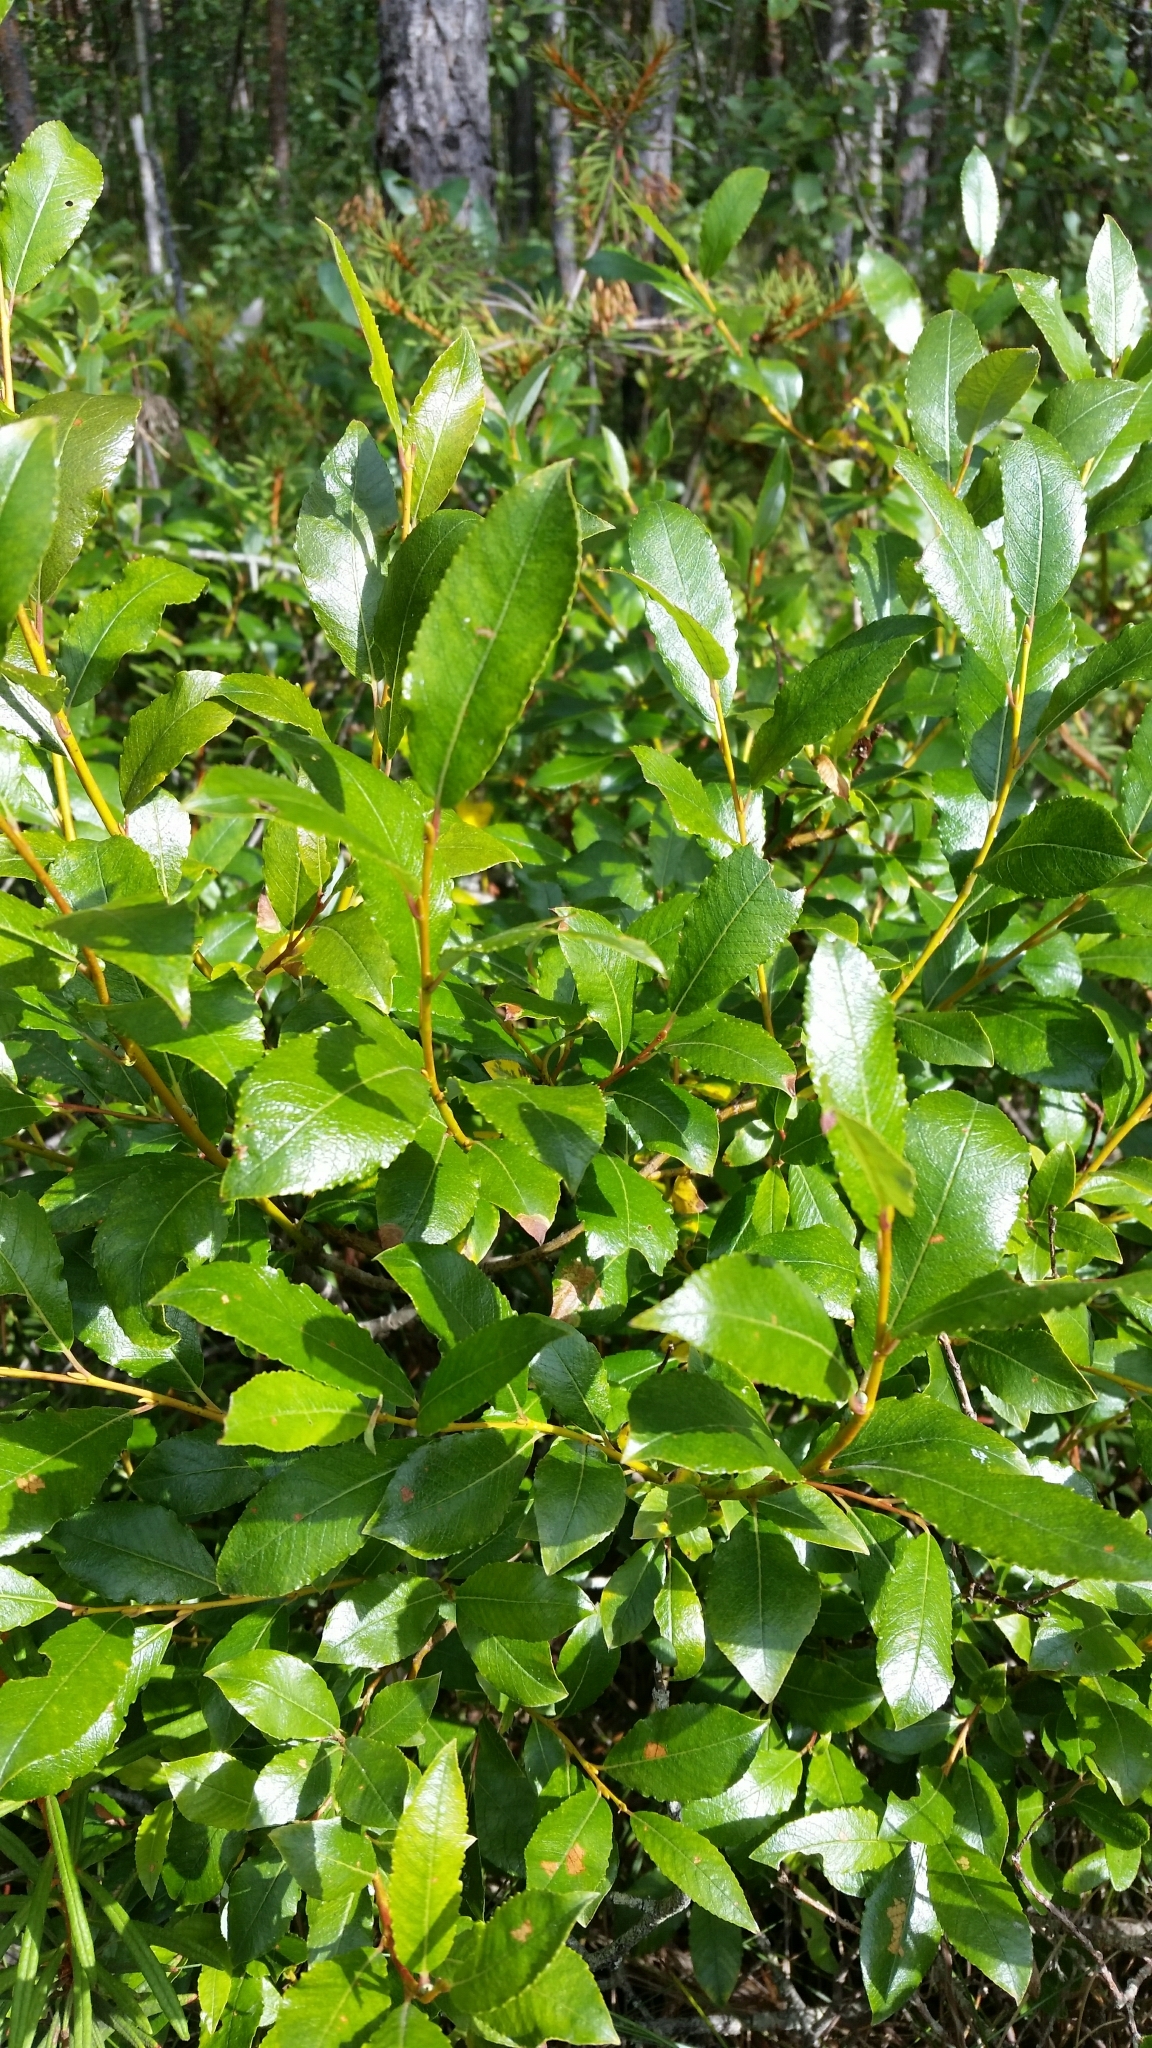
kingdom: Plantae
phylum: Tracheophyta
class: Magnoliopsida
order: Malpighiales
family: Salicaceae
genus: Salix
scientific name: Salix phylicifolia
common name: Tea-leaved willow
